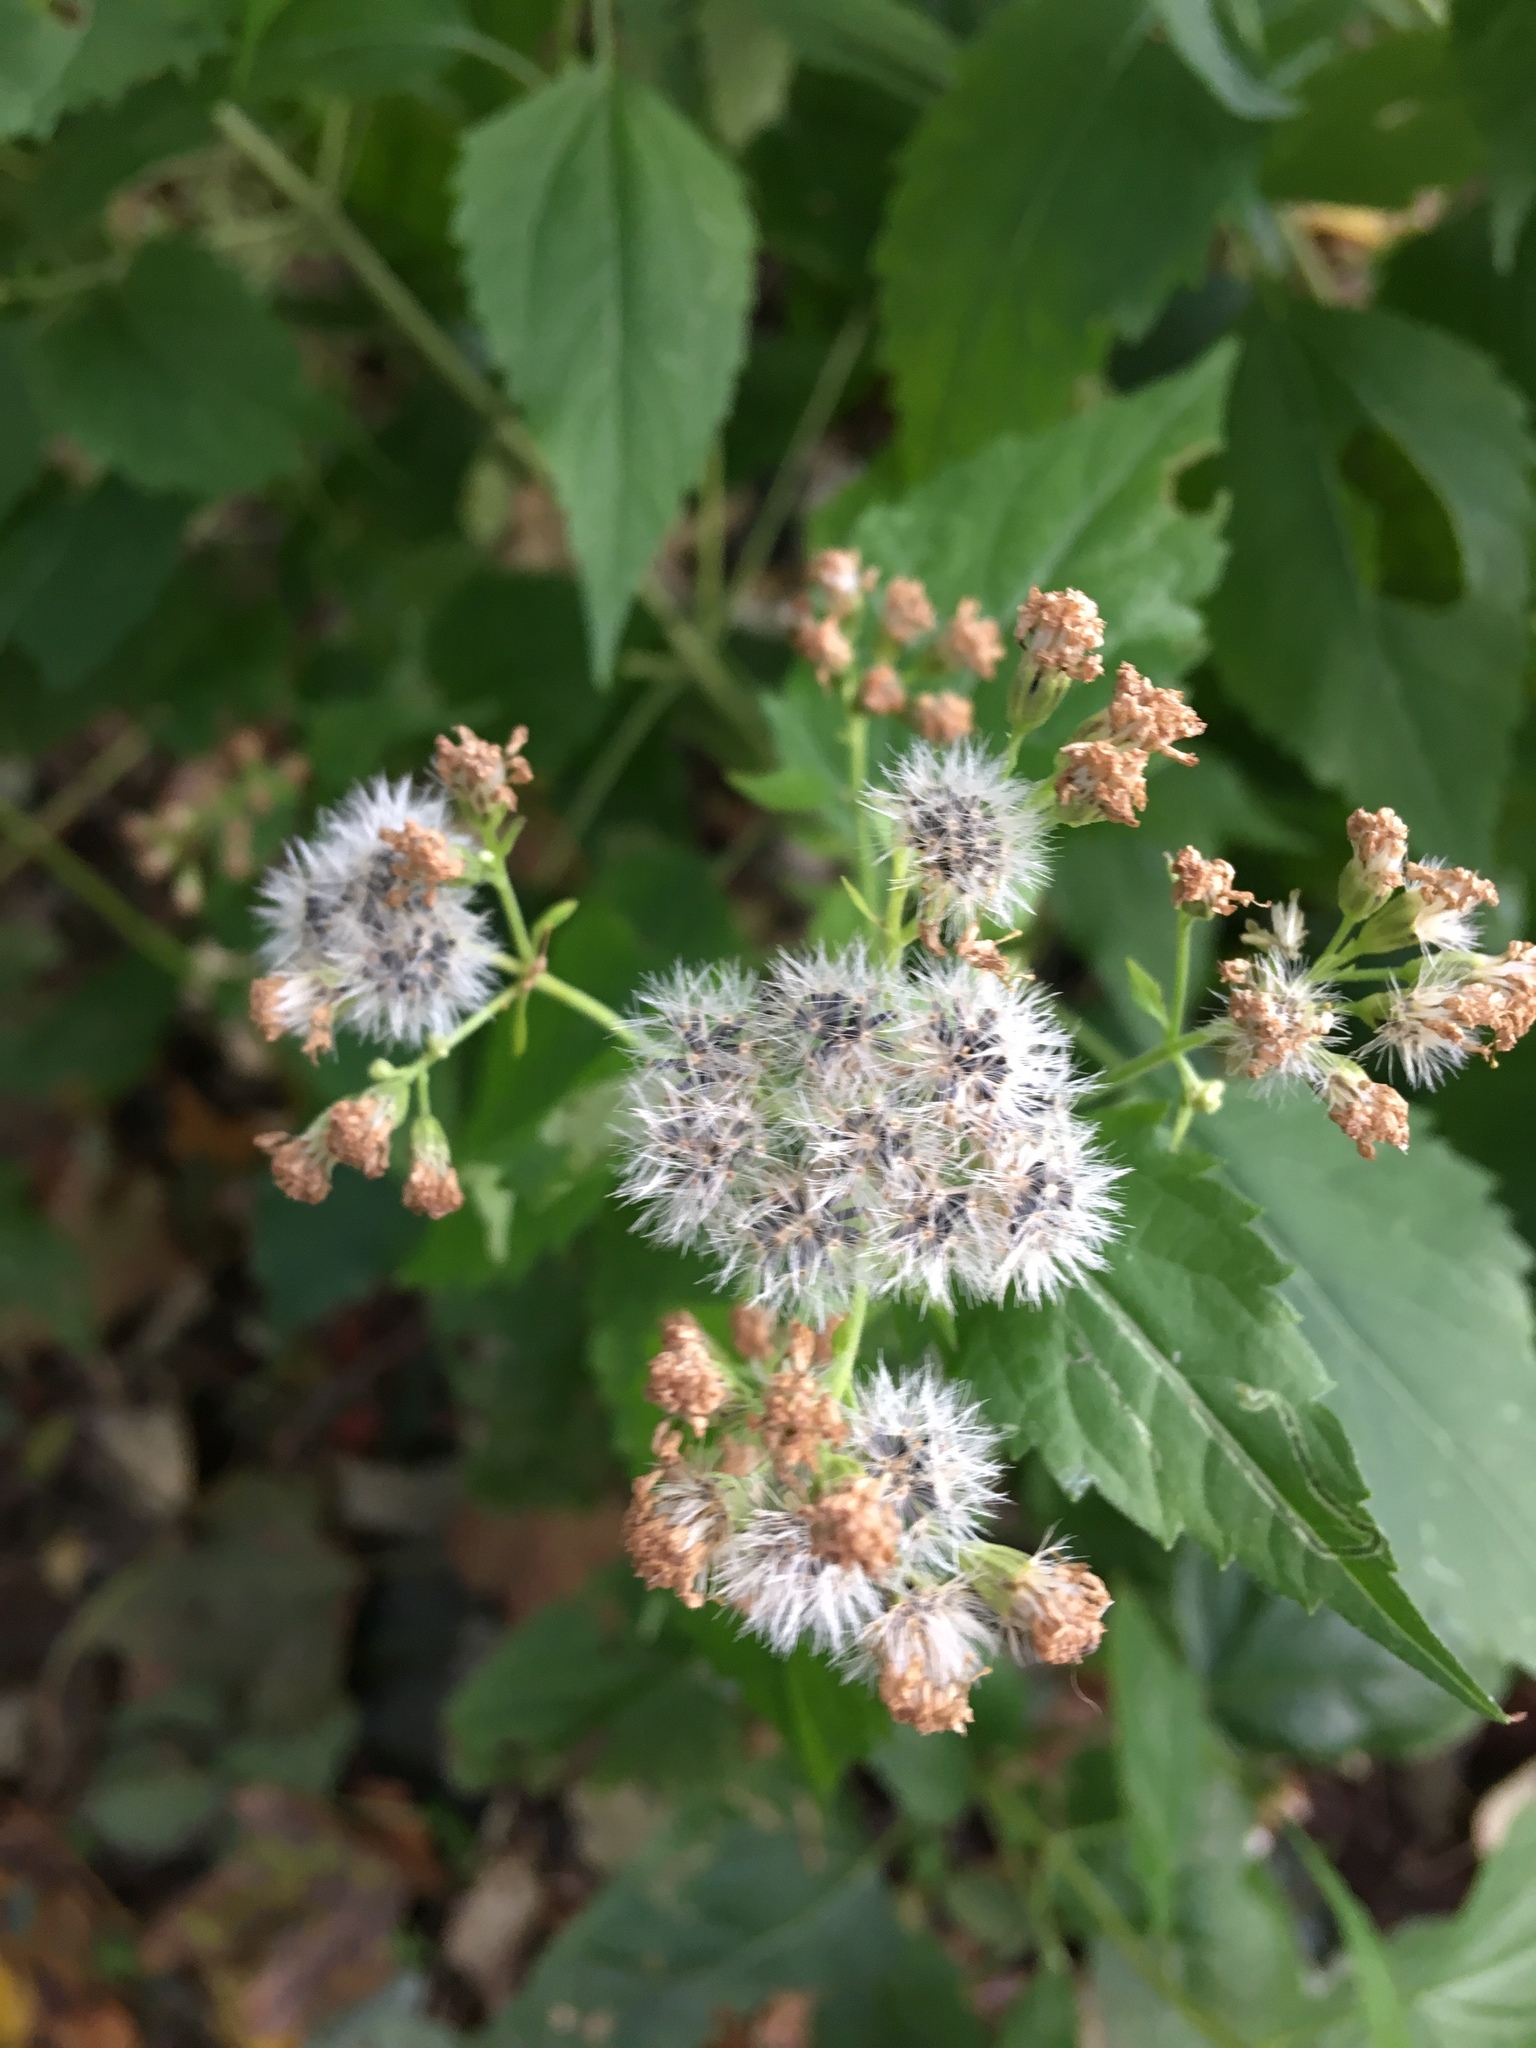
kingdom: Plantae
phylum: Tracheophyta
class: Magnoliopsida
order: Asterales
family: Asteraceae
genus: Ageratina
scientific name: Ageratina altissima
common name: White snakeroot
